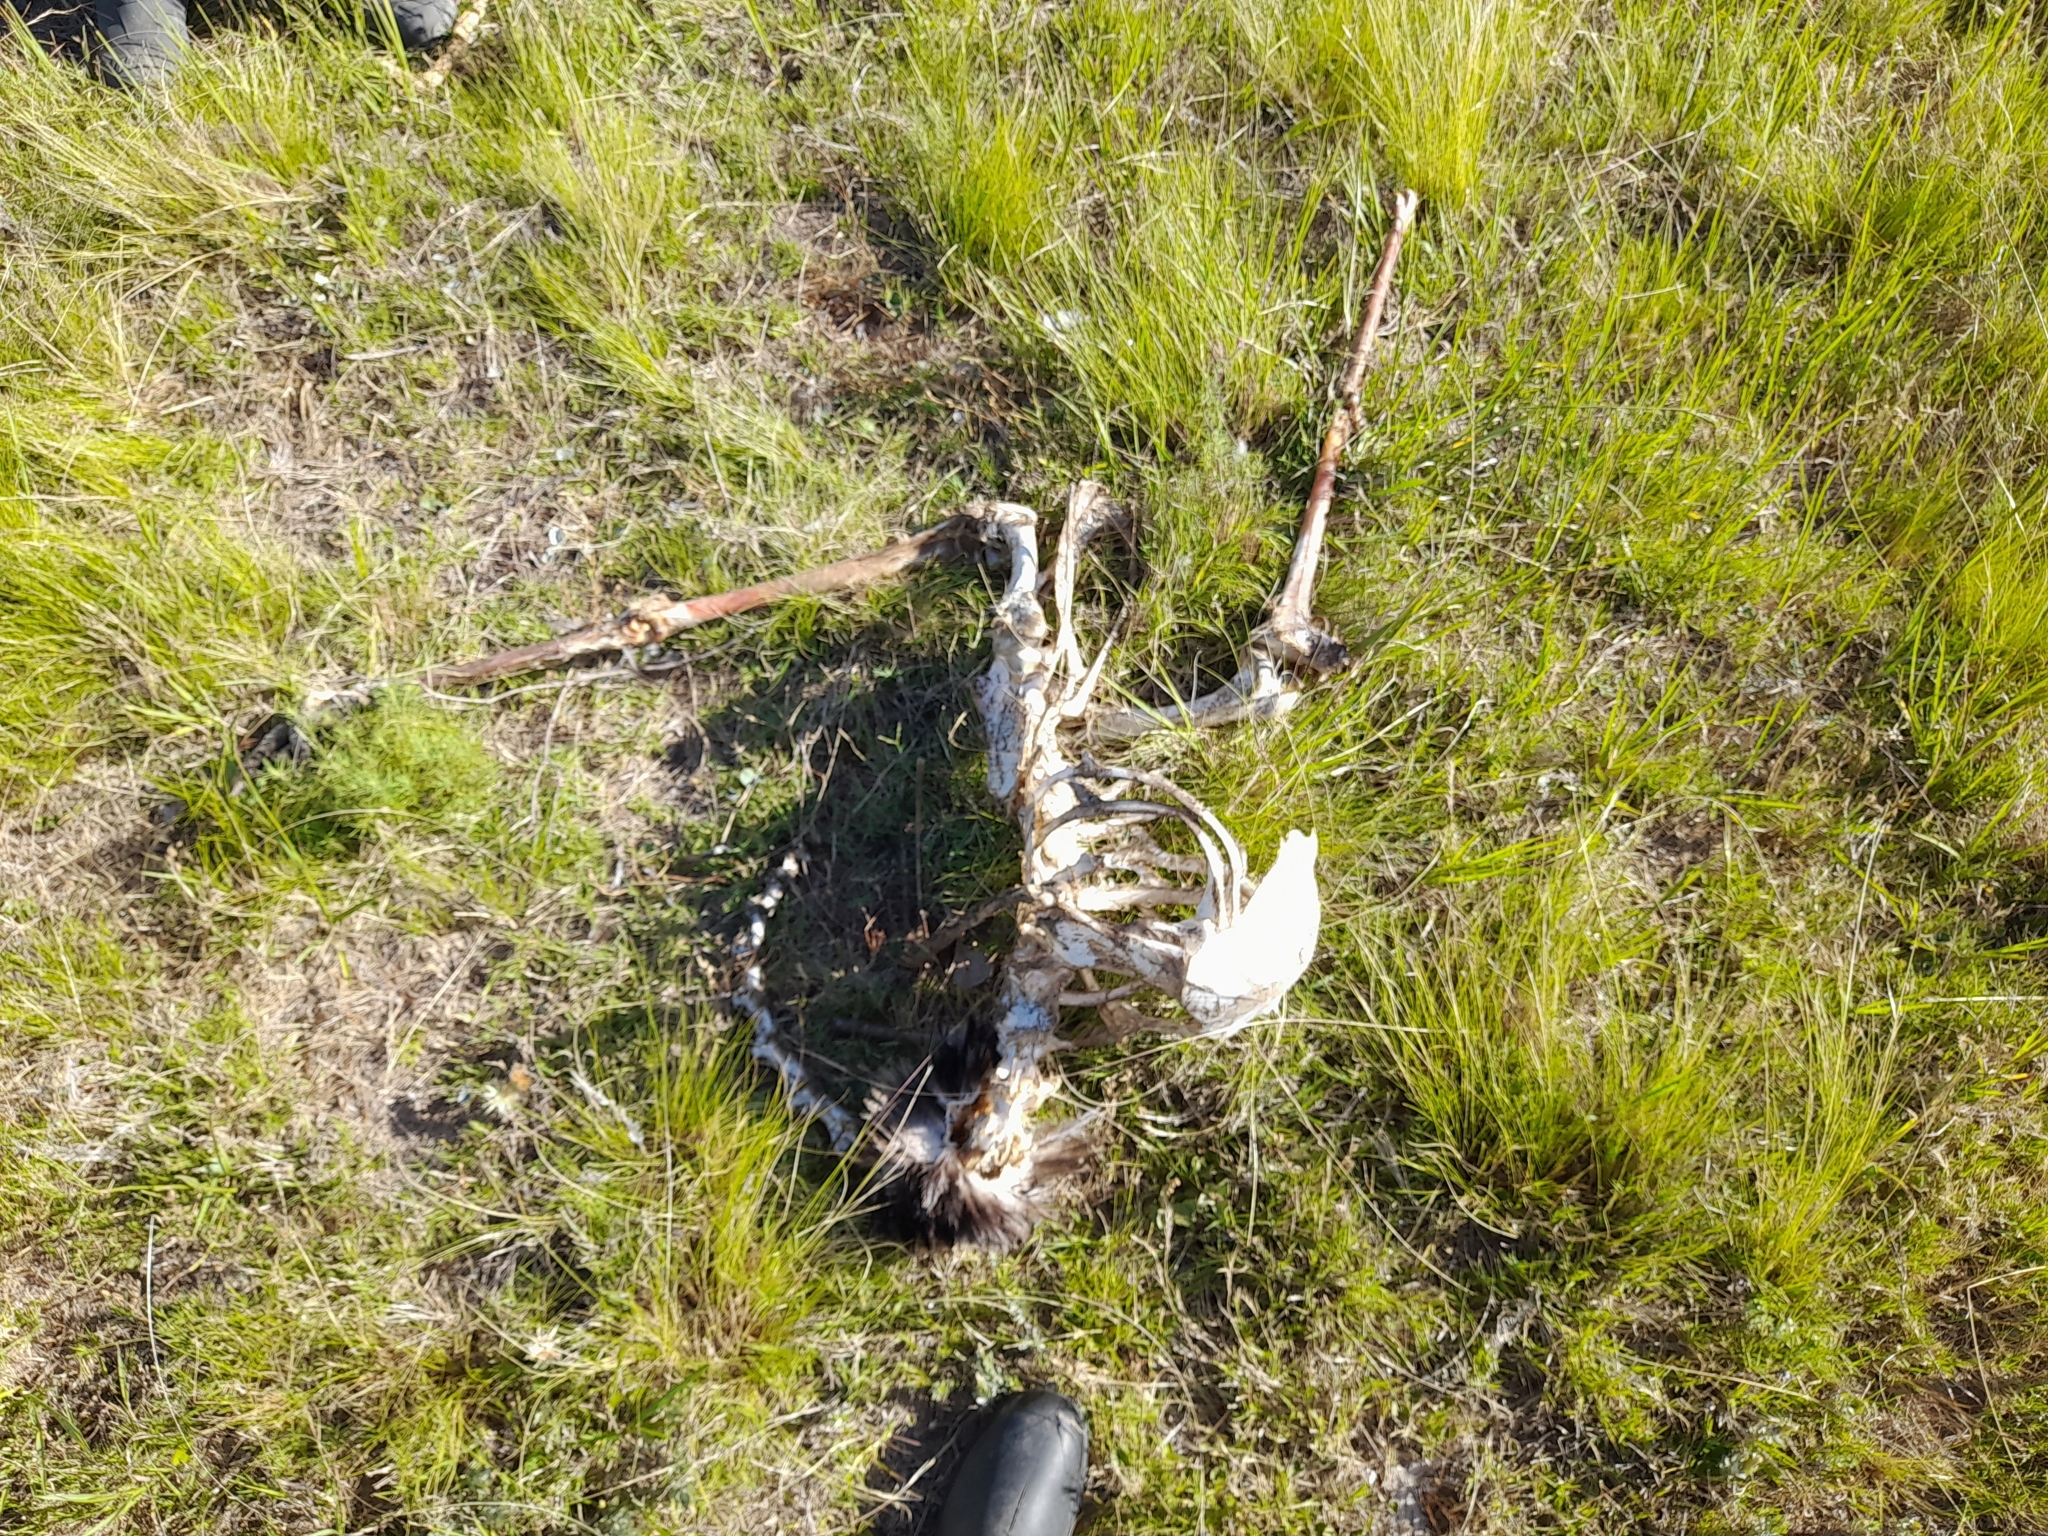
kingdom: Animalia
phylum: Chordata
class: Aves
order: Rheiformes
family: Rheidae
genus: Rhea
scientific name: Rhea americana
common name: Greater rhea
